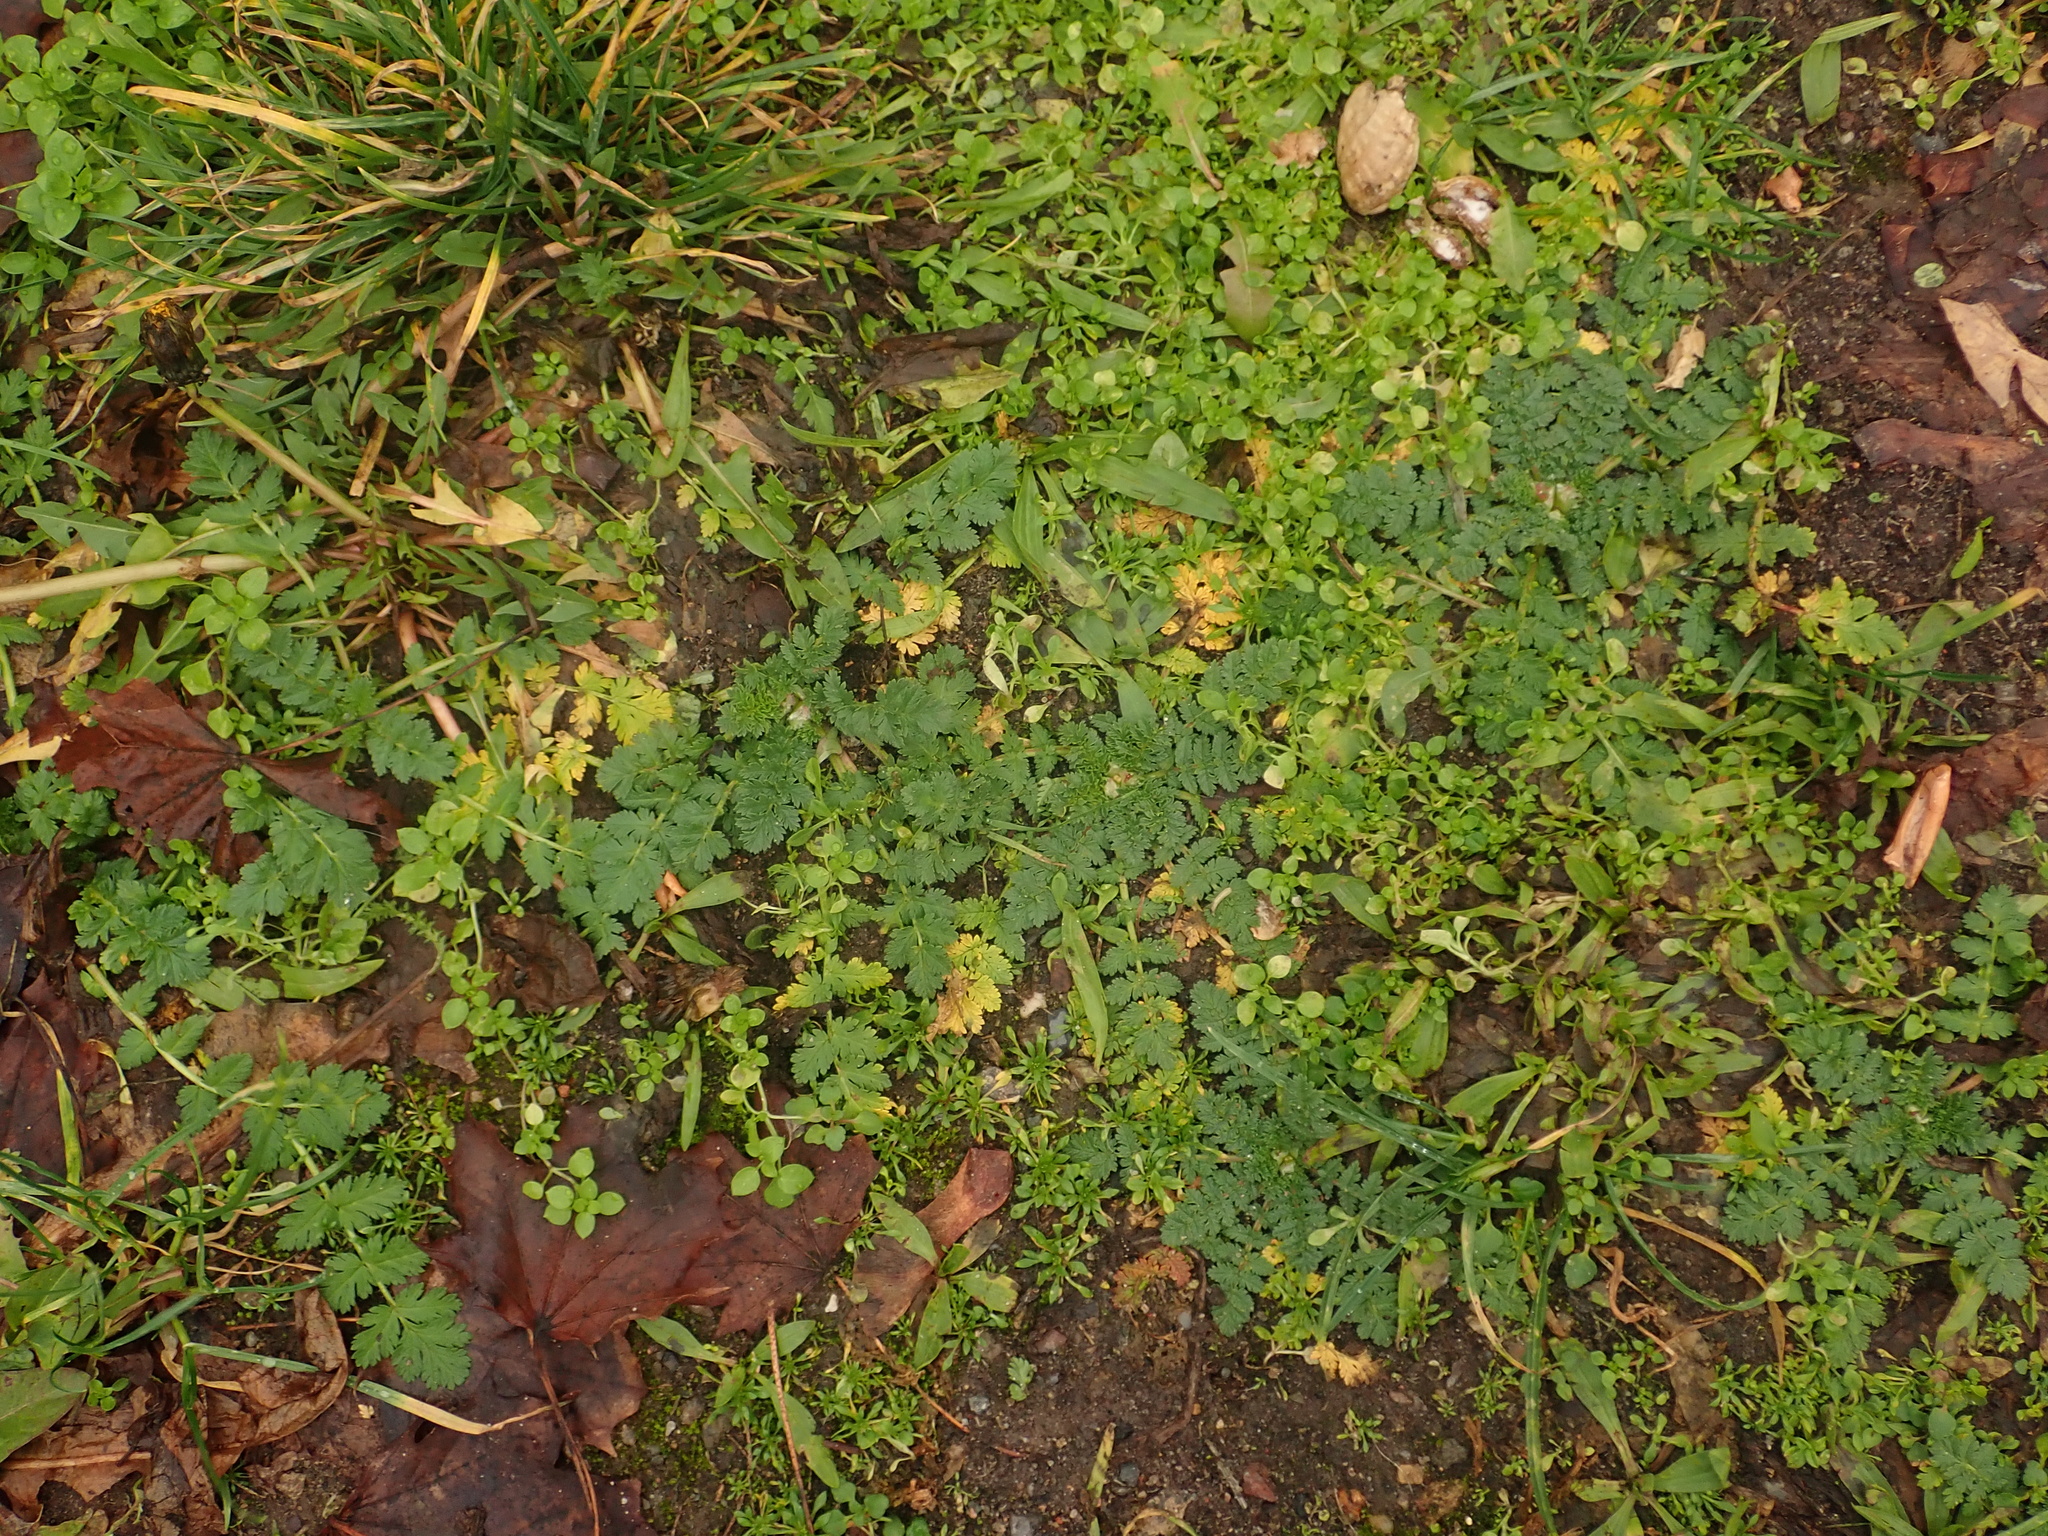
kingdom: Plantae
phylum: Tracheophyta
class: Magnoliopsida
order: Geraniales
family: Geraniaceae
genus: Erodium
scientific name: Erodium cicutarium
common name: Common stork's-bill
